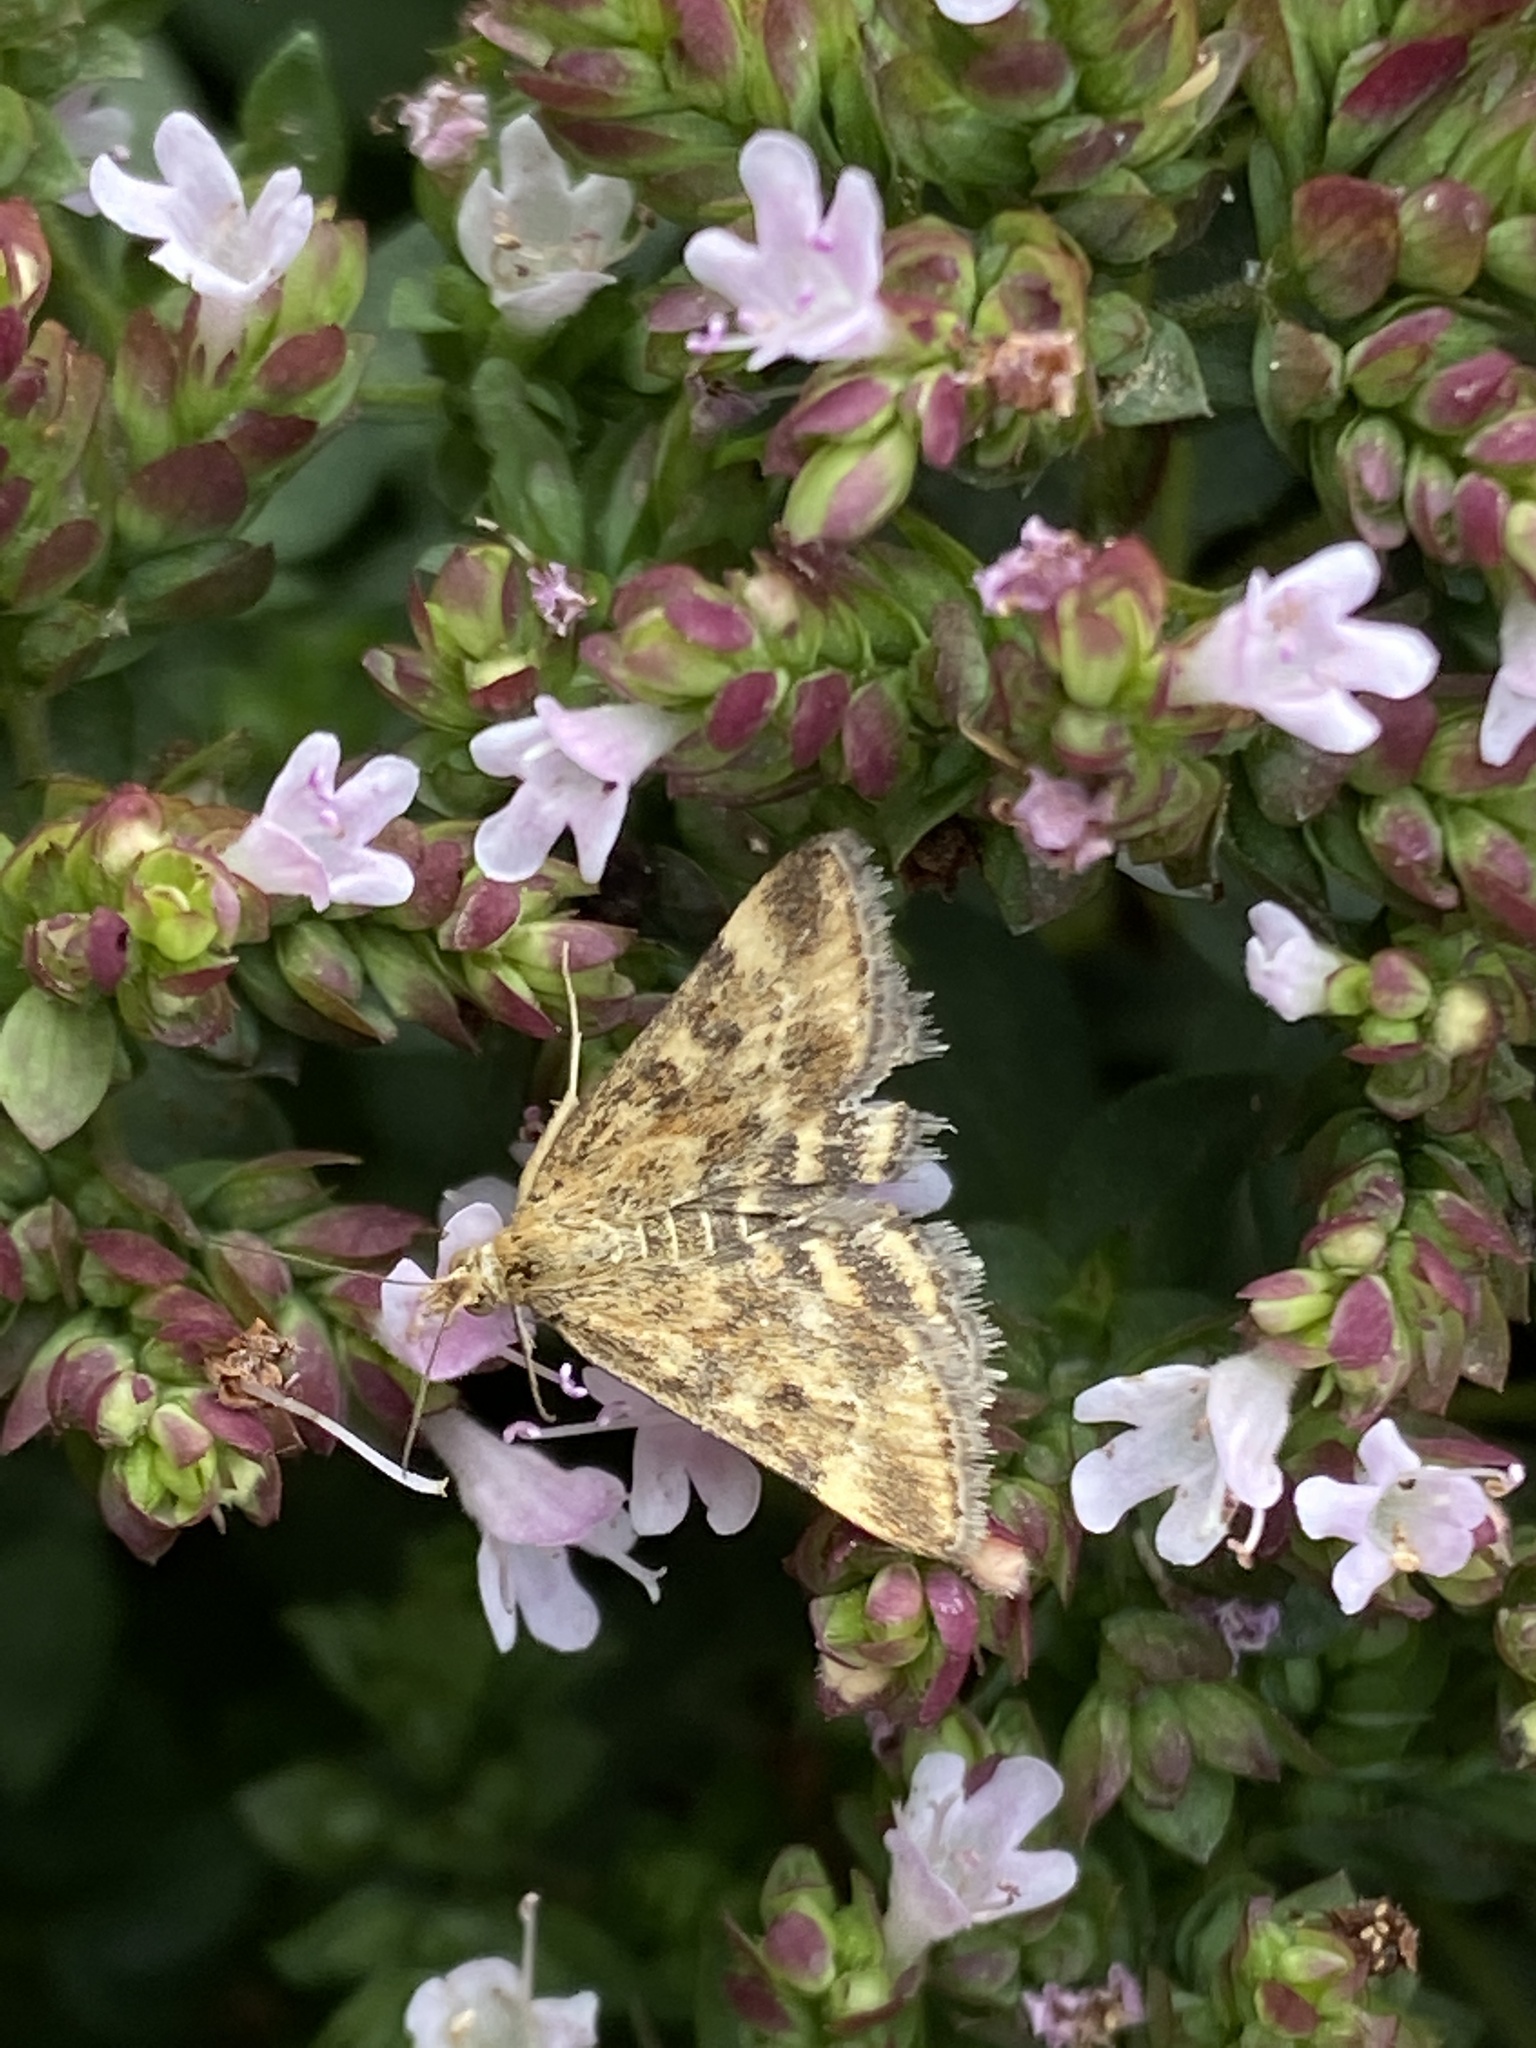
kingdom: Animalia
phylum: Arthropoda
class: Insecta
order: Lepidoptera
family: Crambidae
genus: Pyrausta
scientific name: Pyrausta despicata
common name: Straw-barred pearl
